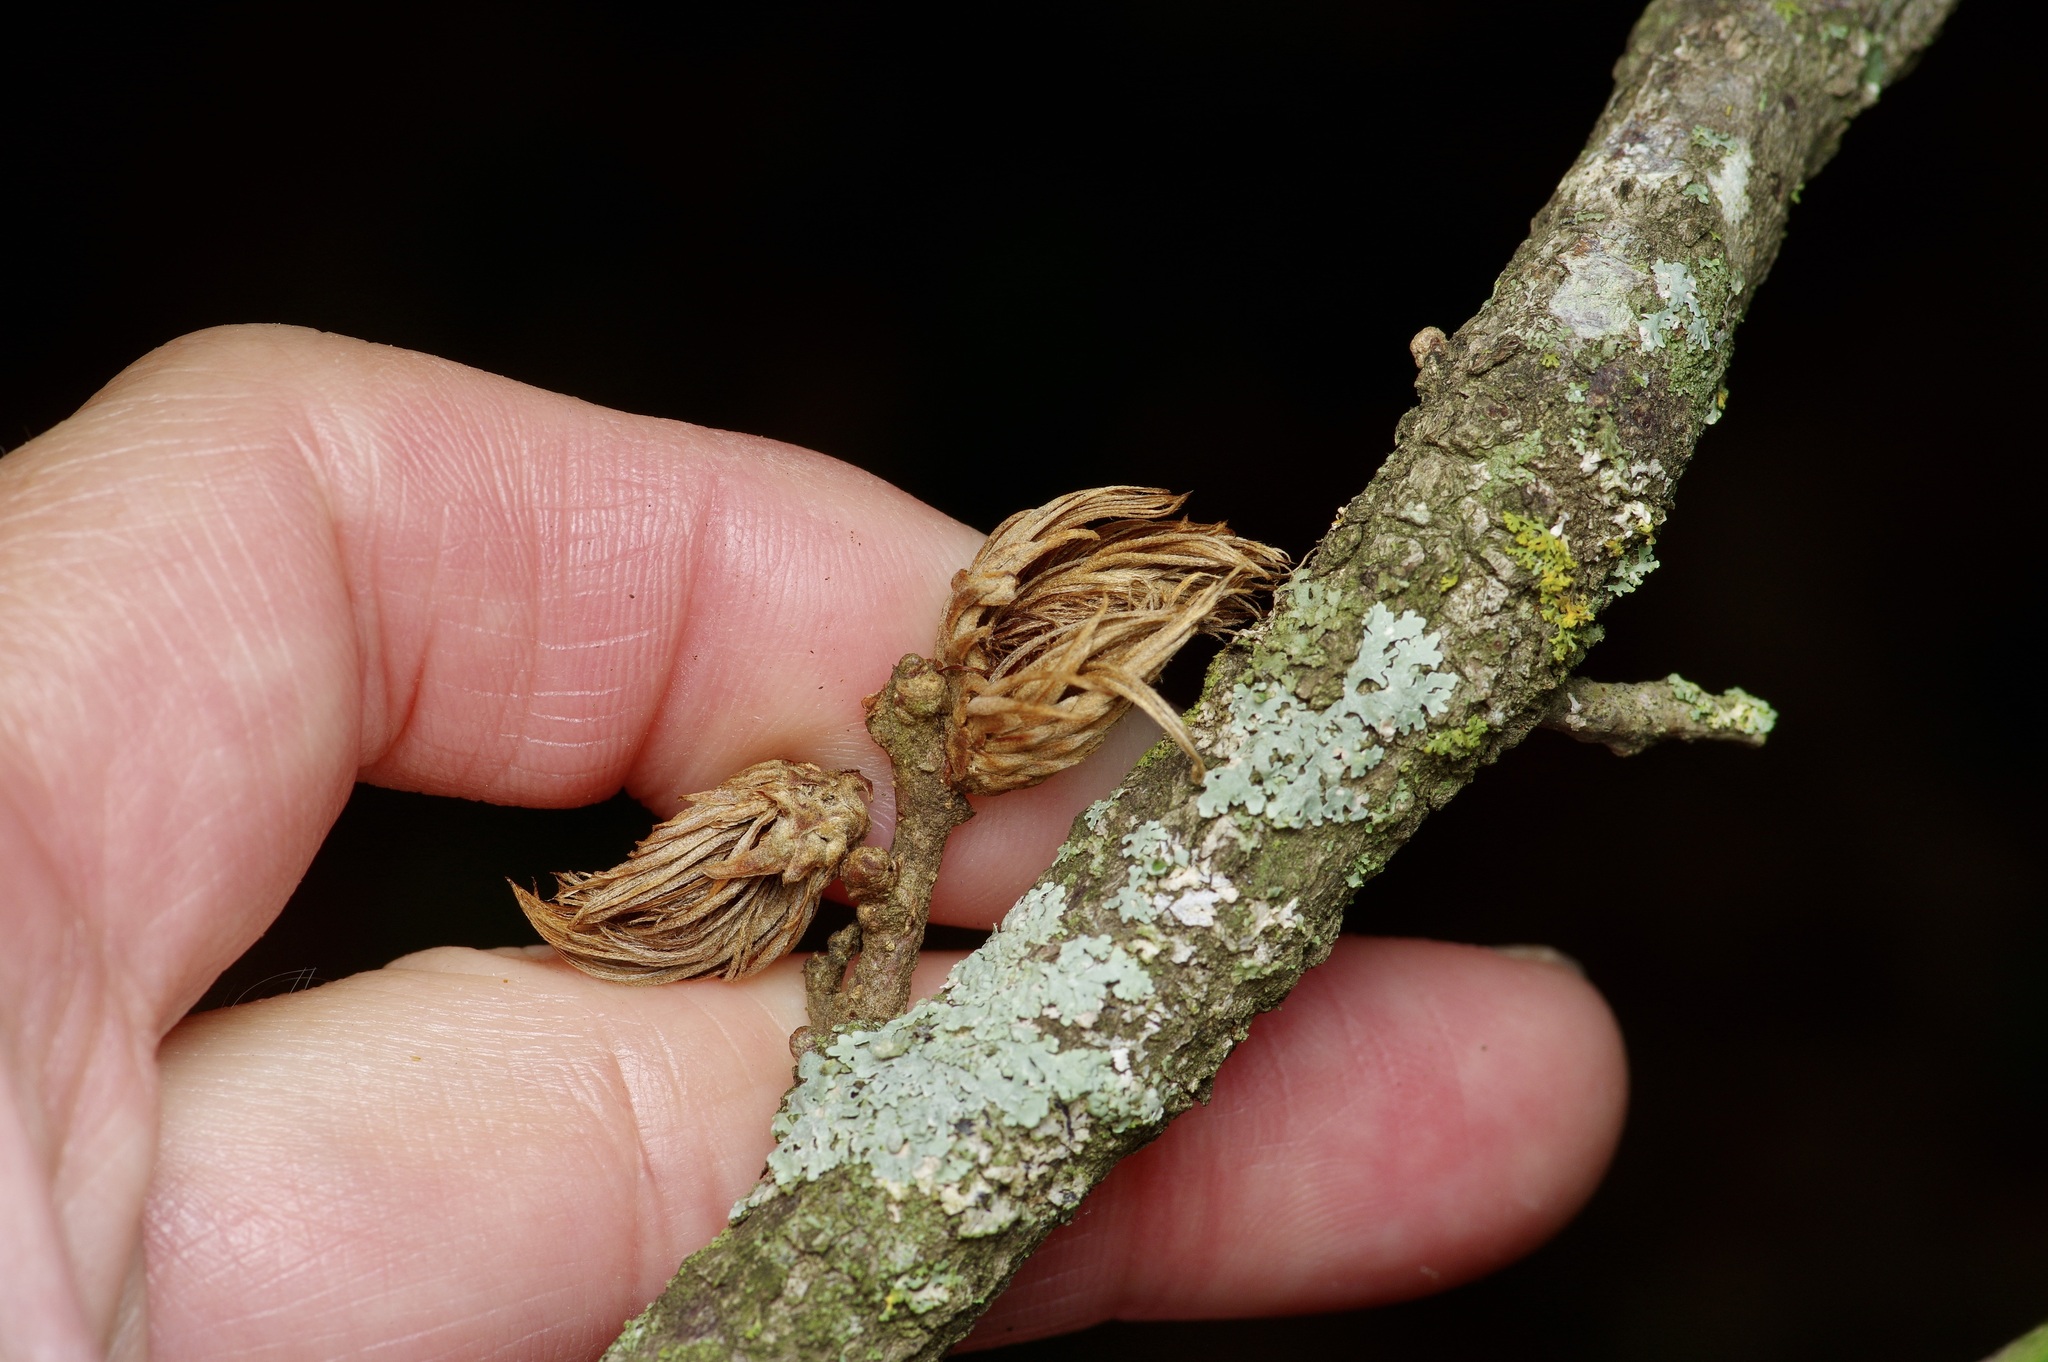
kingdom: Animalia
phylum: Arthropoda
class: Insecta
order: Hymenoptera
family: Cynipidae
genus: Andricus
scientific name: Andricus quercusfoliatus
